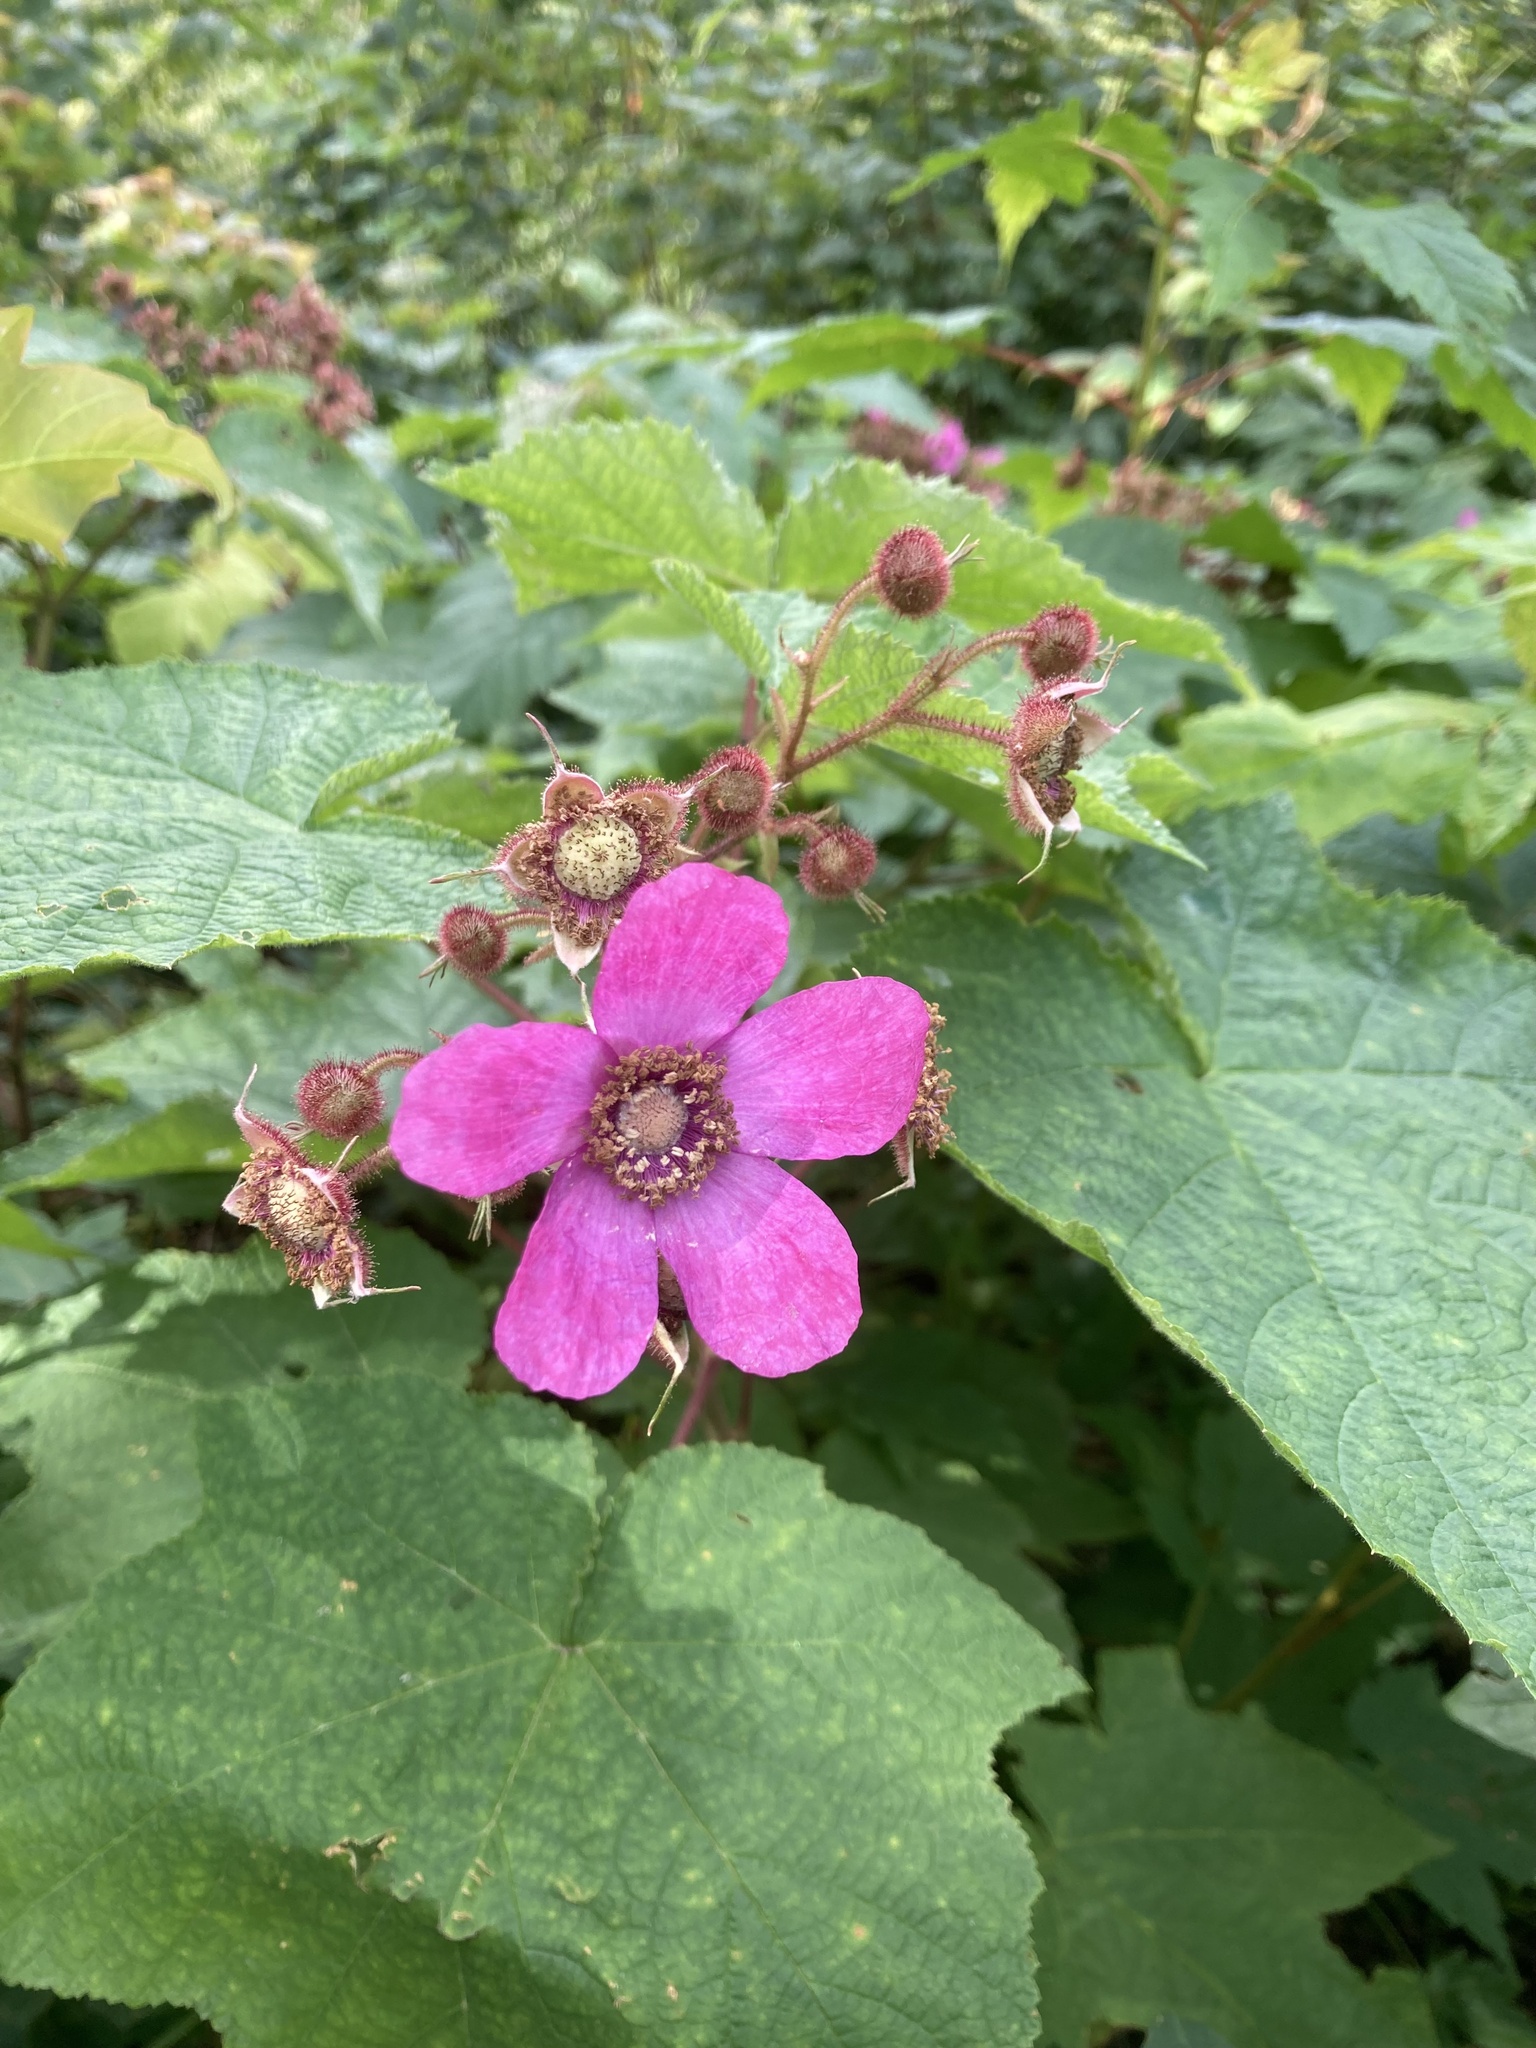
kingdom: Plantae
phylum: Tracheophyta
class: Magnoliopsida
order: Rosales
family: Rosaceae
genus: Rubus
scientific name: Rubus odoratus
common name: Purple-flowered raspberry
